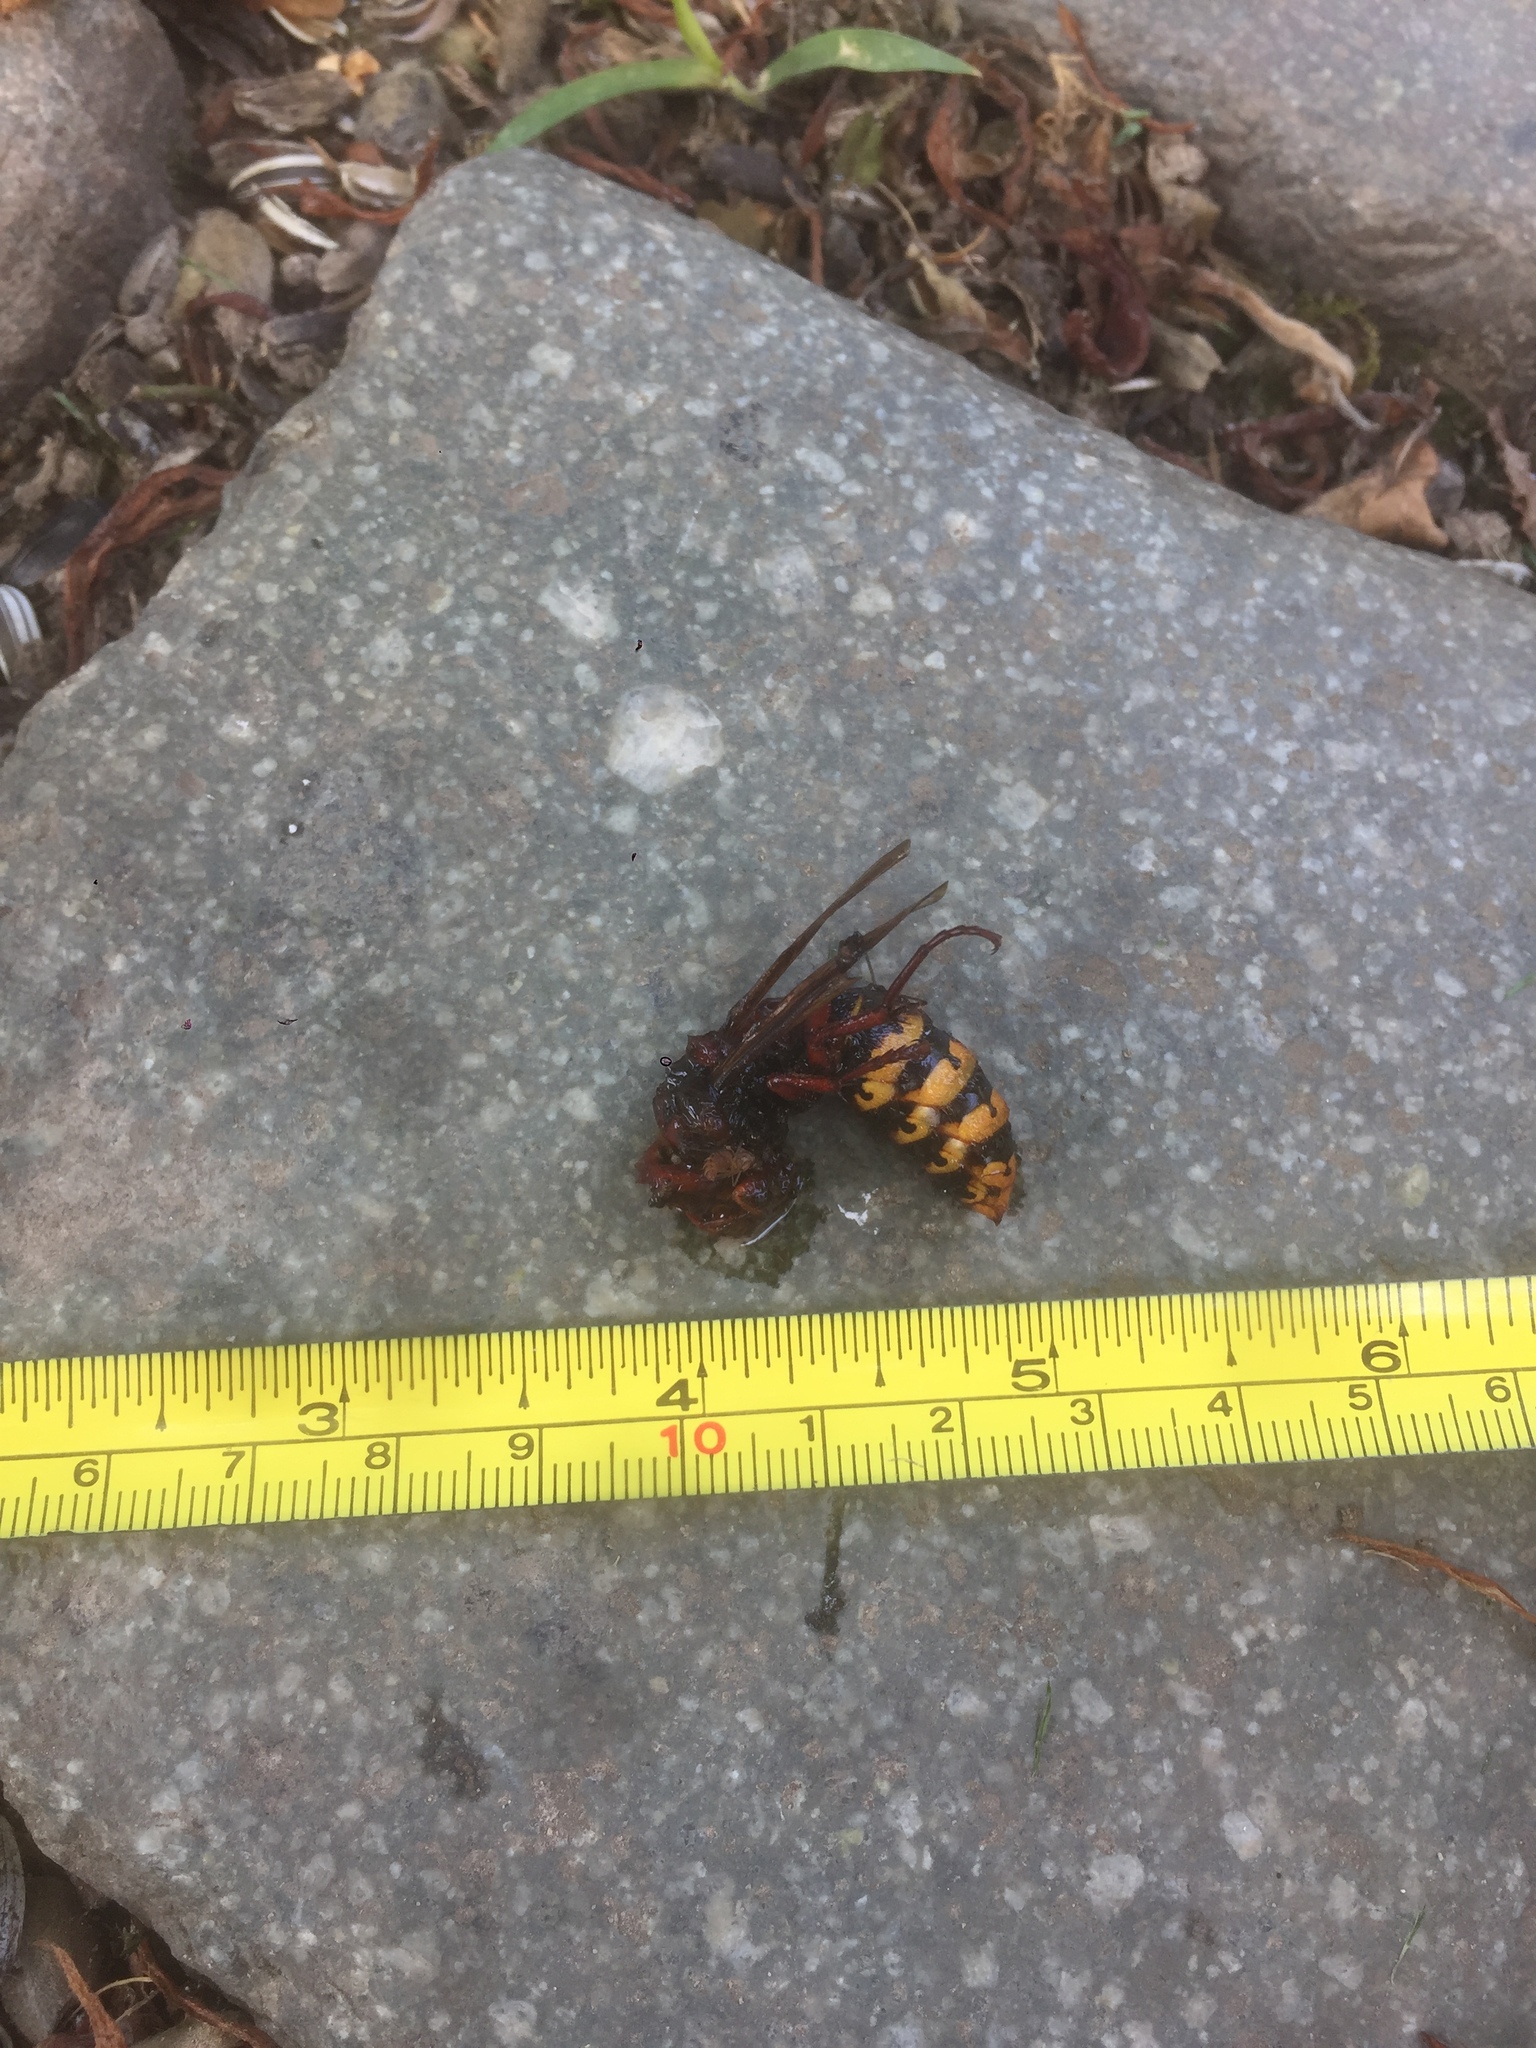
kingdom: Animalia
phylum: Arthropoda
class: Insecta
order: Hymenoptera
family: Vespidae
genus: Vespa
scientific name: Vespa crabro
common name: Hornet
